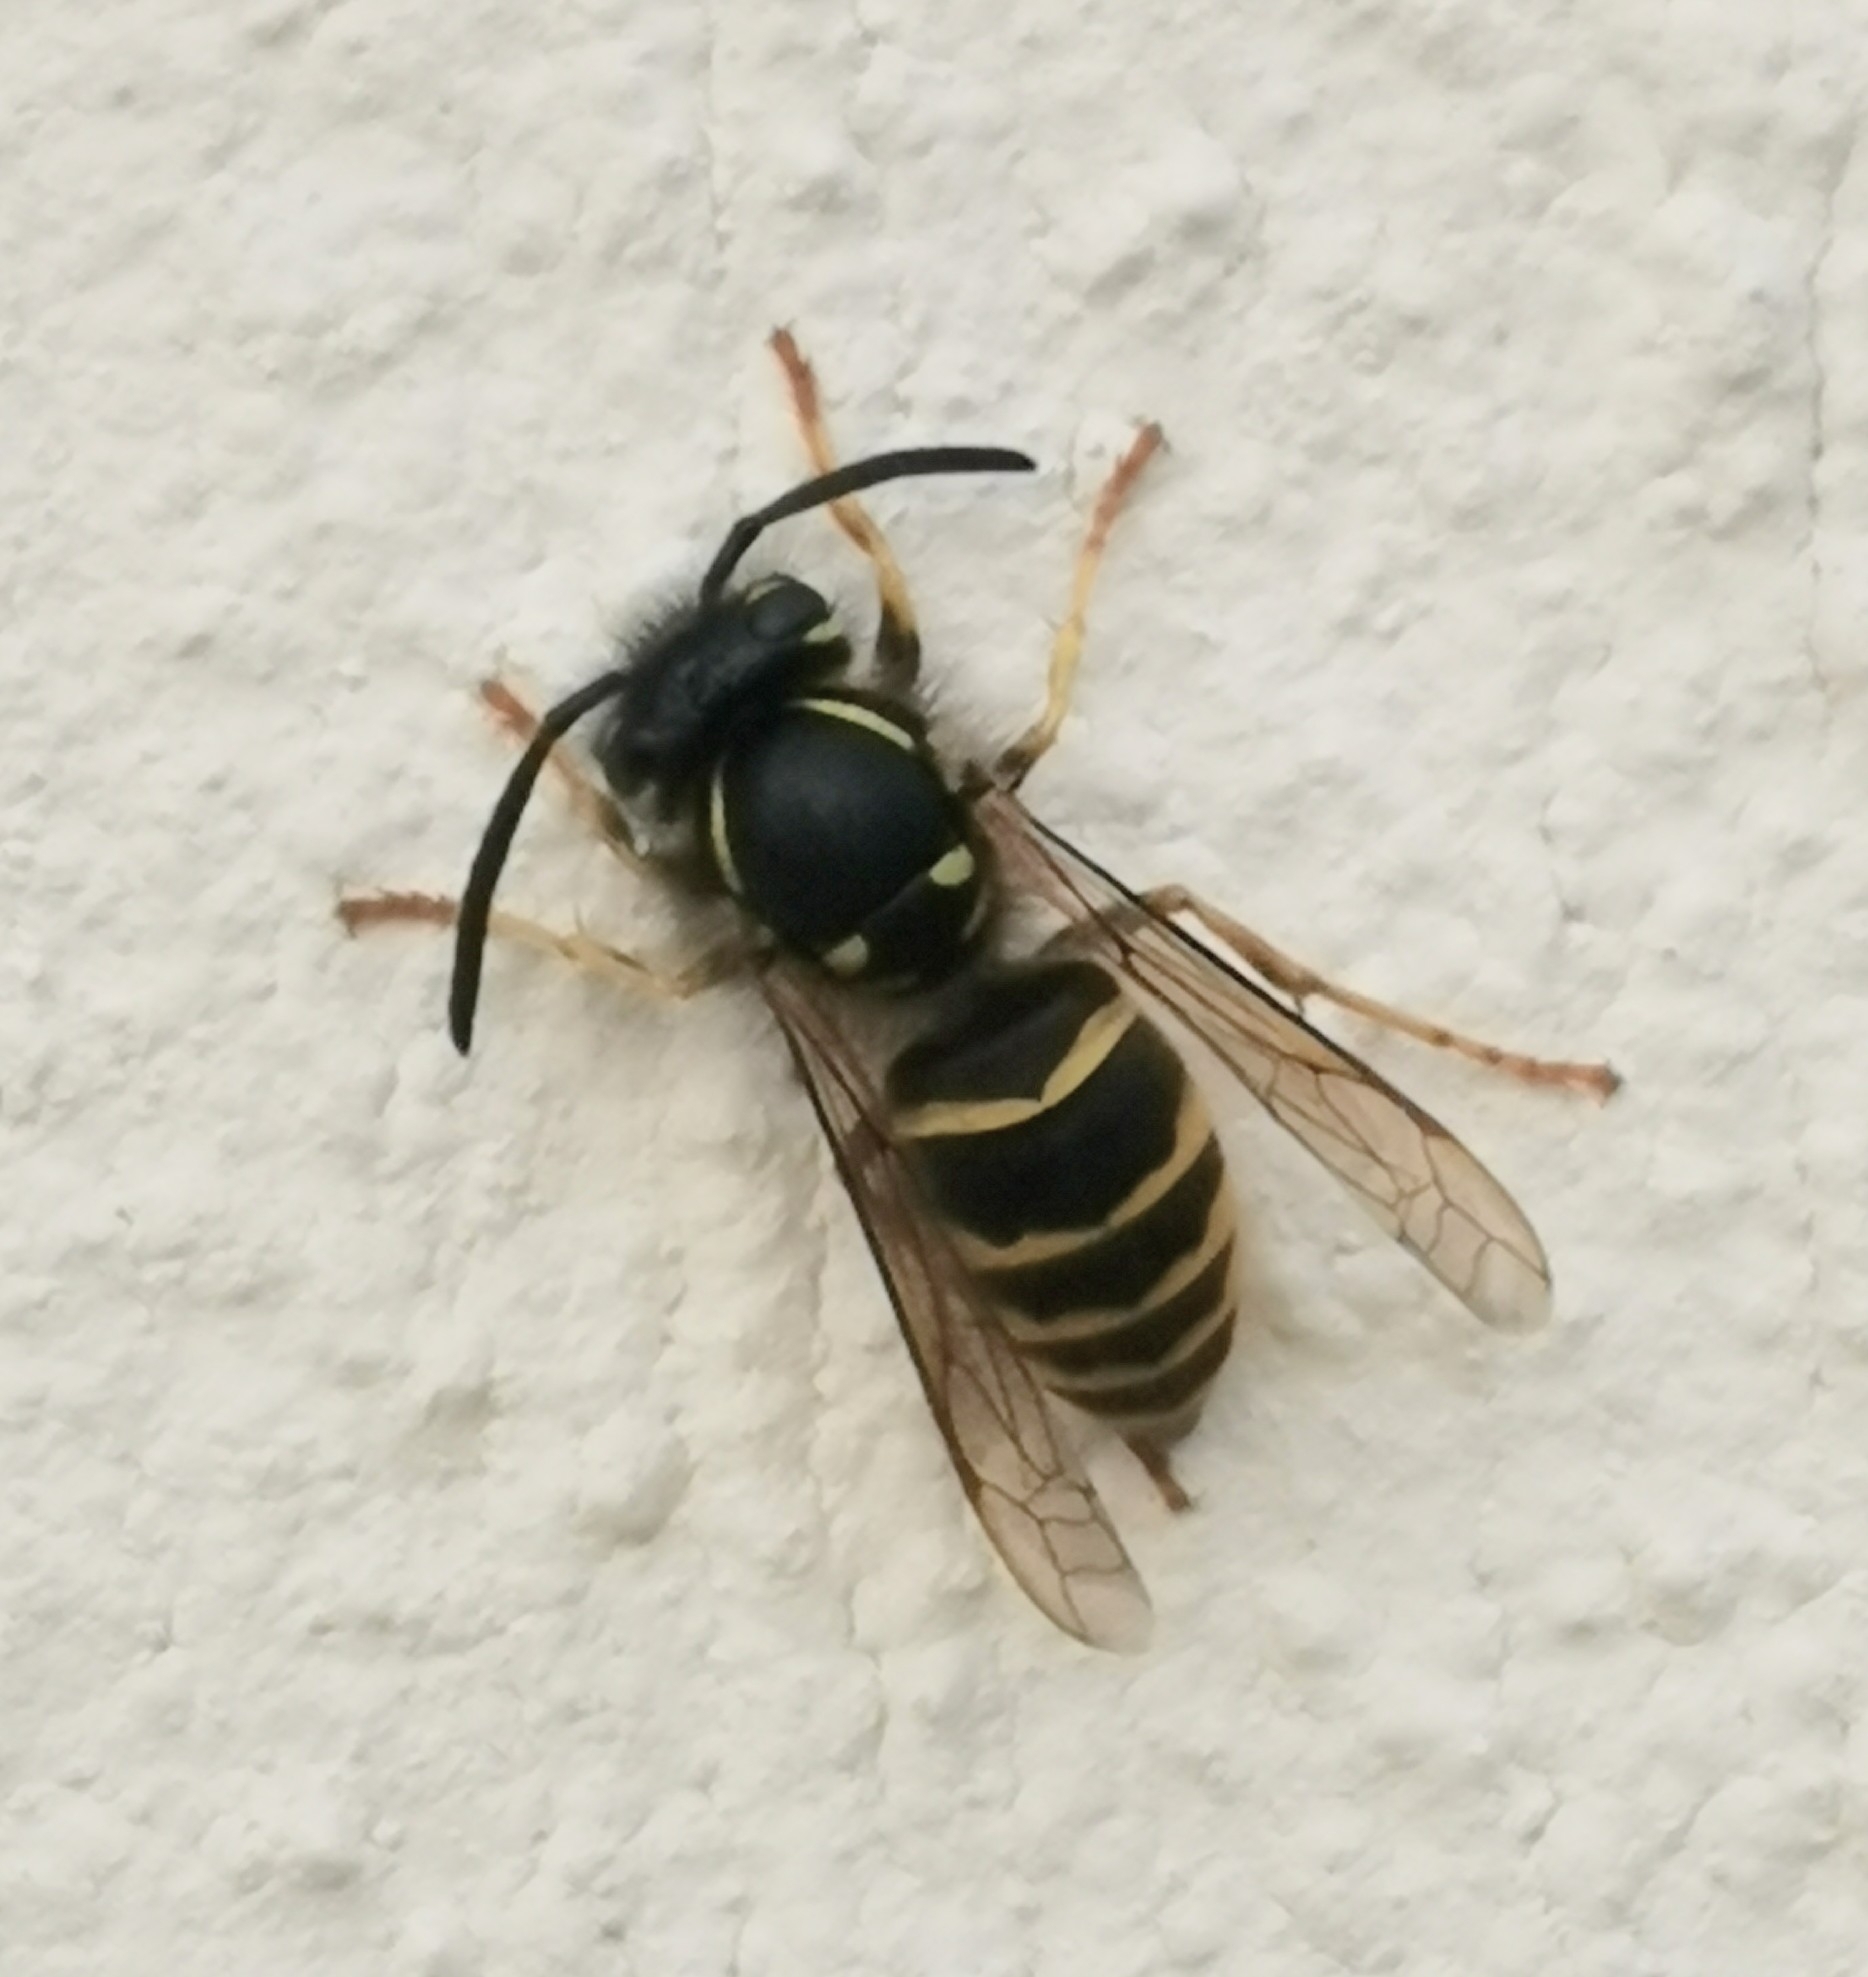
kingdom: Animalia
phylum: Arthropoda
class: Insecta
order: Hymenoptera
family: Vespidae
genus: Vespula
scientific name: Vespula vulgaris
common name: Common wasp
